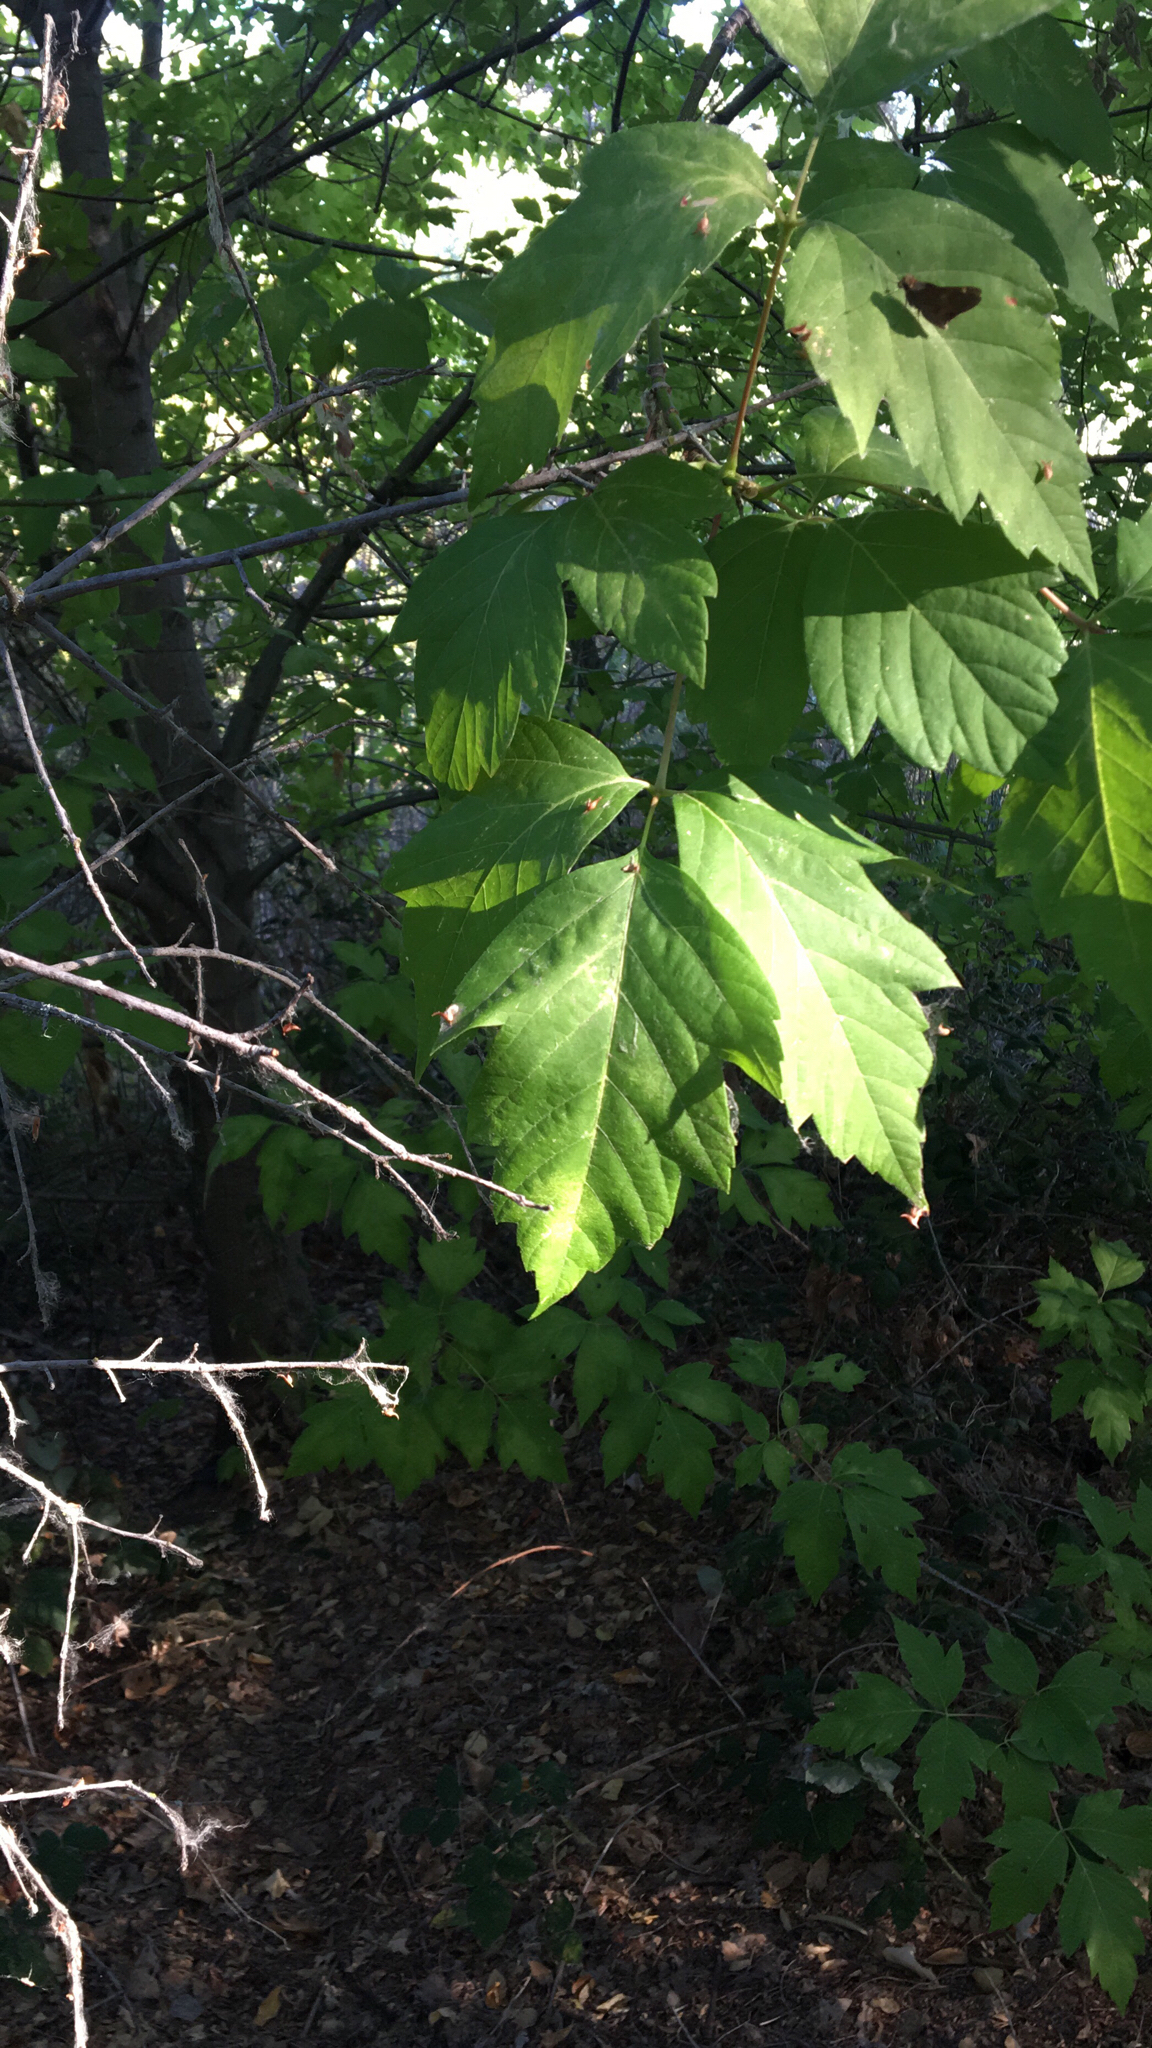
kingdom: Plantae
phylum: Tracheophyta
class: Magnoliopsida
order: Sapindales
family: Sapindaceae
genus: Acer
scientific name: Acer negundo
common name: Ashleaf maple
